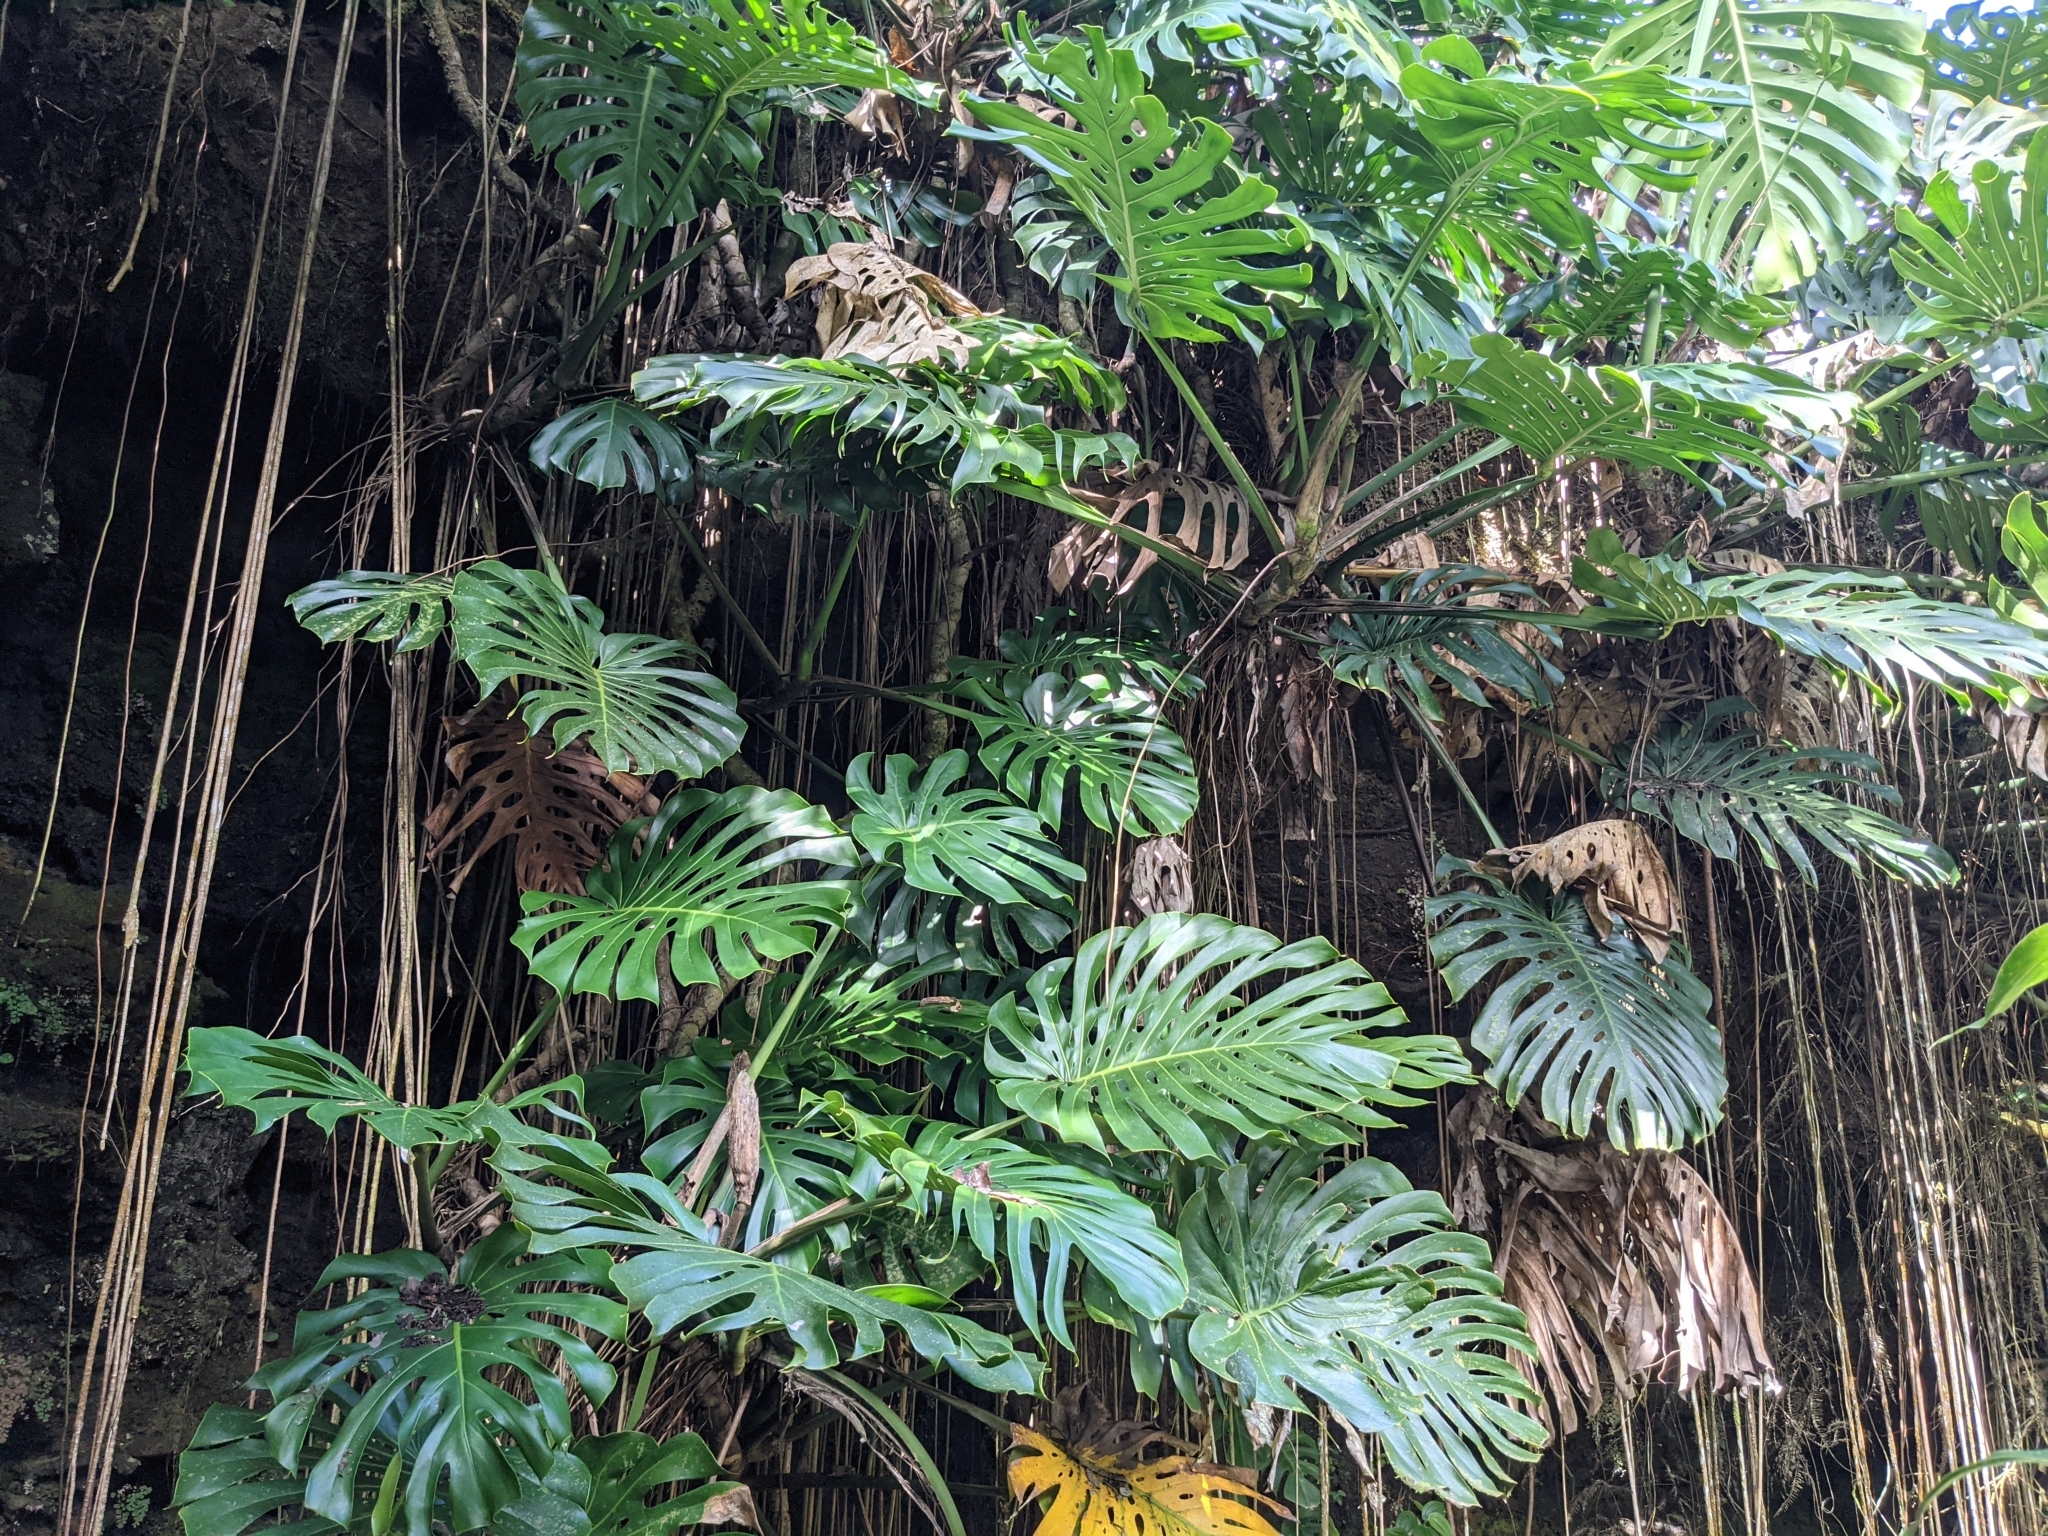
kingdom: Plantae
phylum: Tracheophyta
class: Liliopsida
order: Alismatales
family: Araceae
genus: Monstera
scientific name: Monstera deliciosa
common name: Cut-leaf-philodendron
